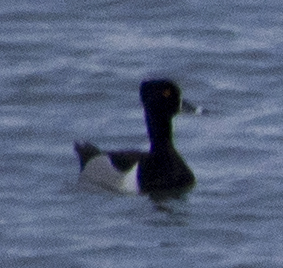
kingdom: Animalia
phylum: Chordata
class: Aves
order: Anseriformes
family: Anatidae
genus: Aythya
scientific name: Aythya collaris
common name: Ring-necked duck
